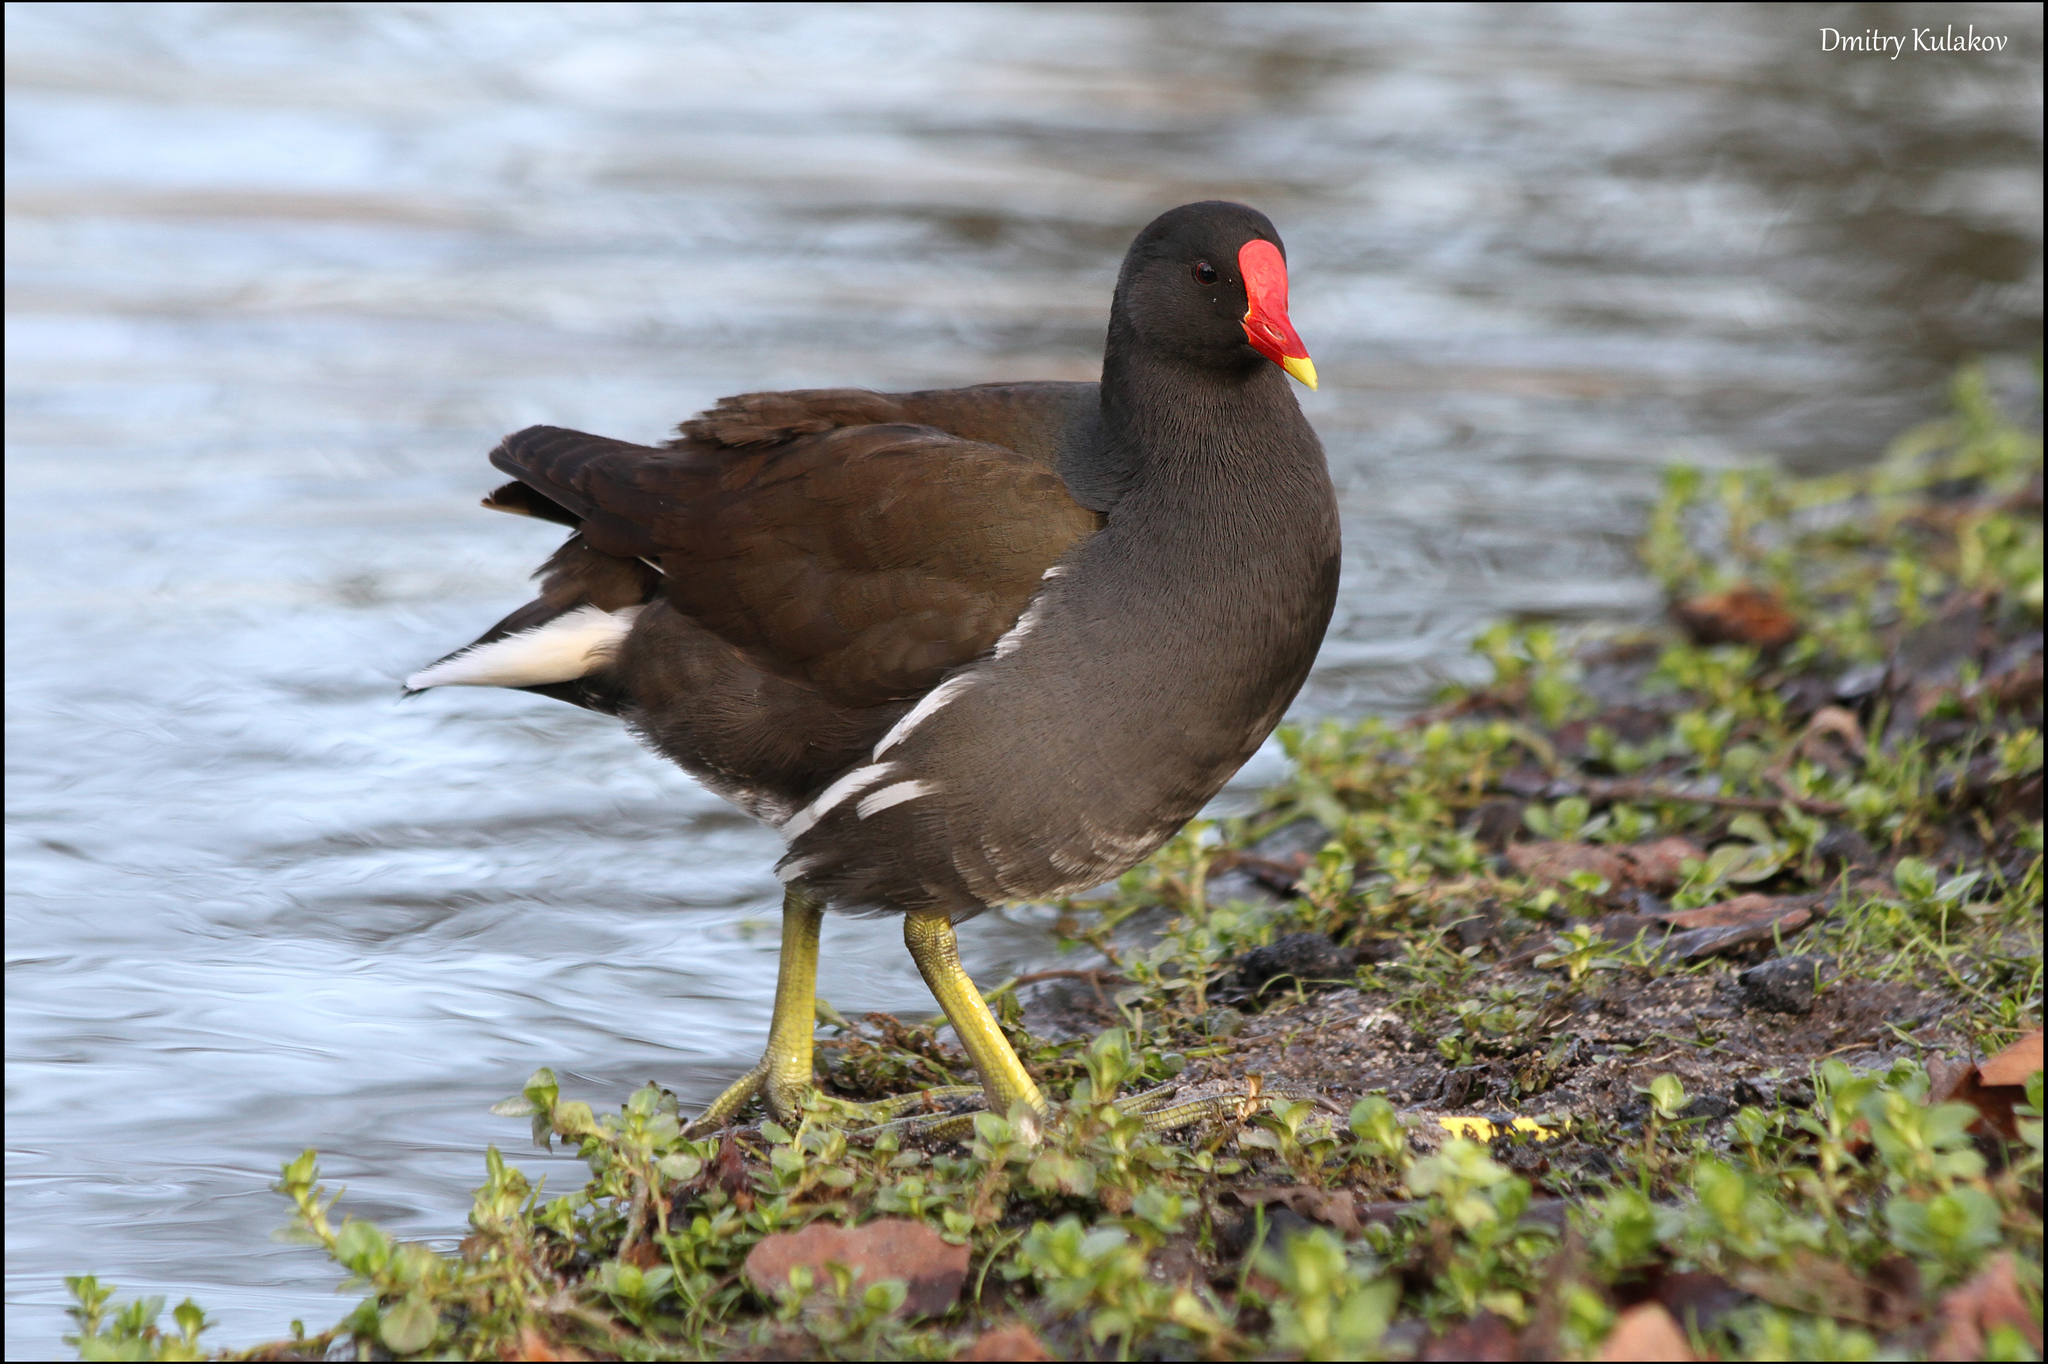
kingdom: Animalia
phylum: Chordata
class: Aves
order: Gruiformes
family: Rallidae
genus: Gallinula
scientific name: Gallinula chloropus
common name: Common moorhen
